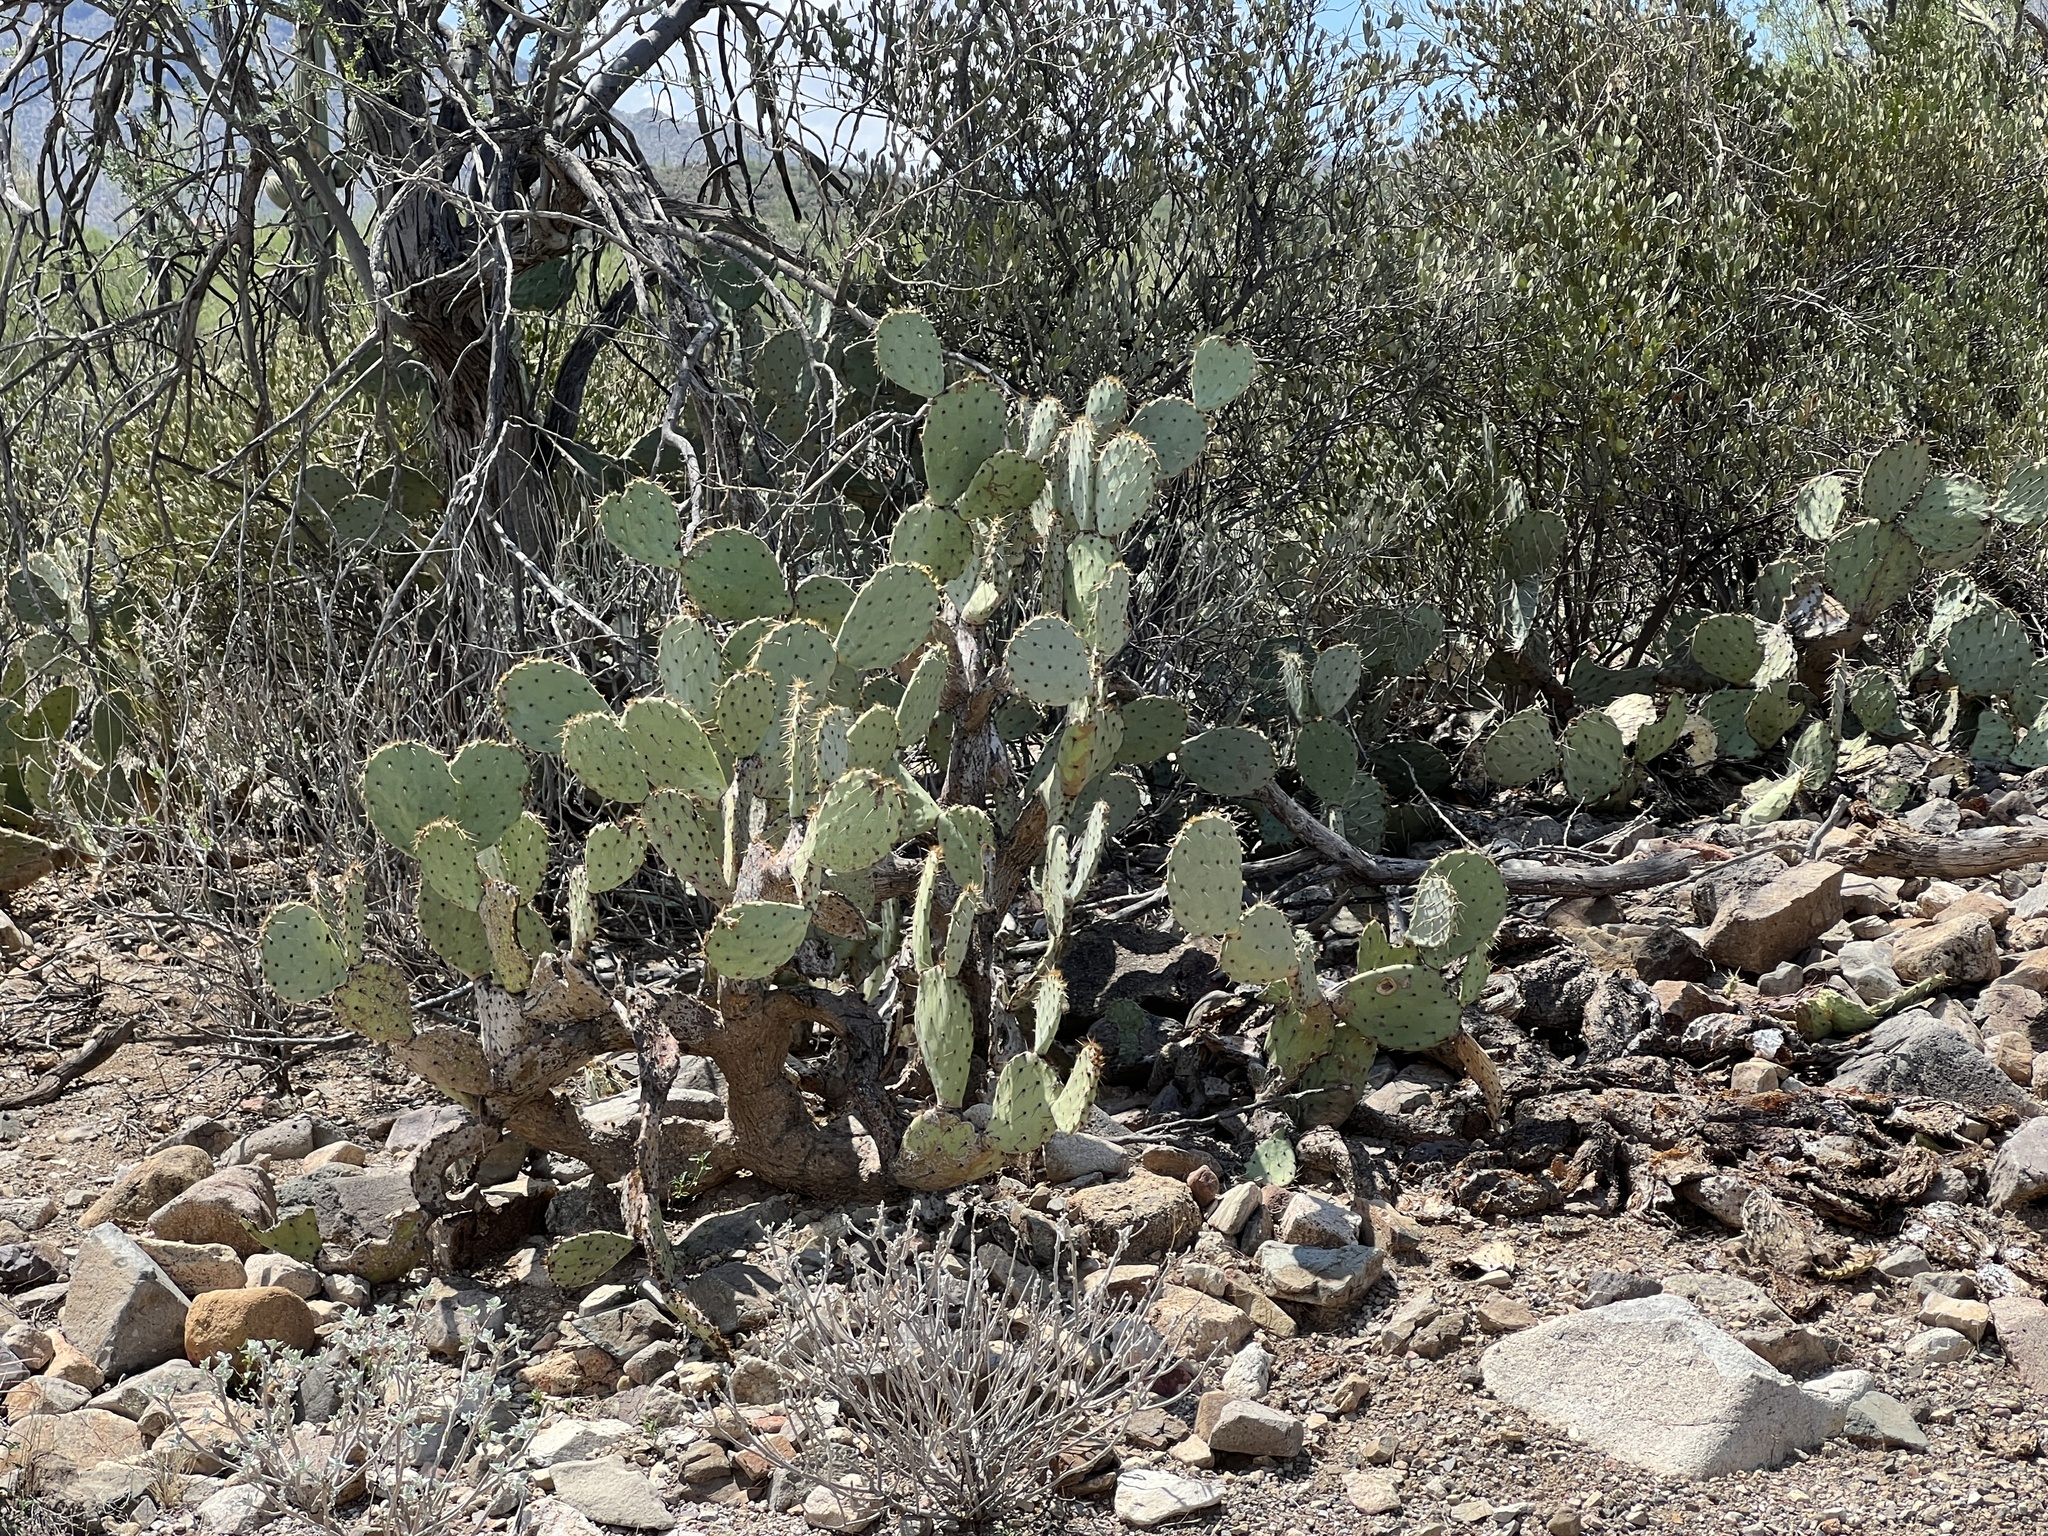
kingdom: Plantae
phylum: Tracheophyta
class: Magnoliopsida
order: Caryophyllales
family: Cactaceae
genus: Opuntia
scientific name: Opuntia engelmannii
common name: Cactus-apple
